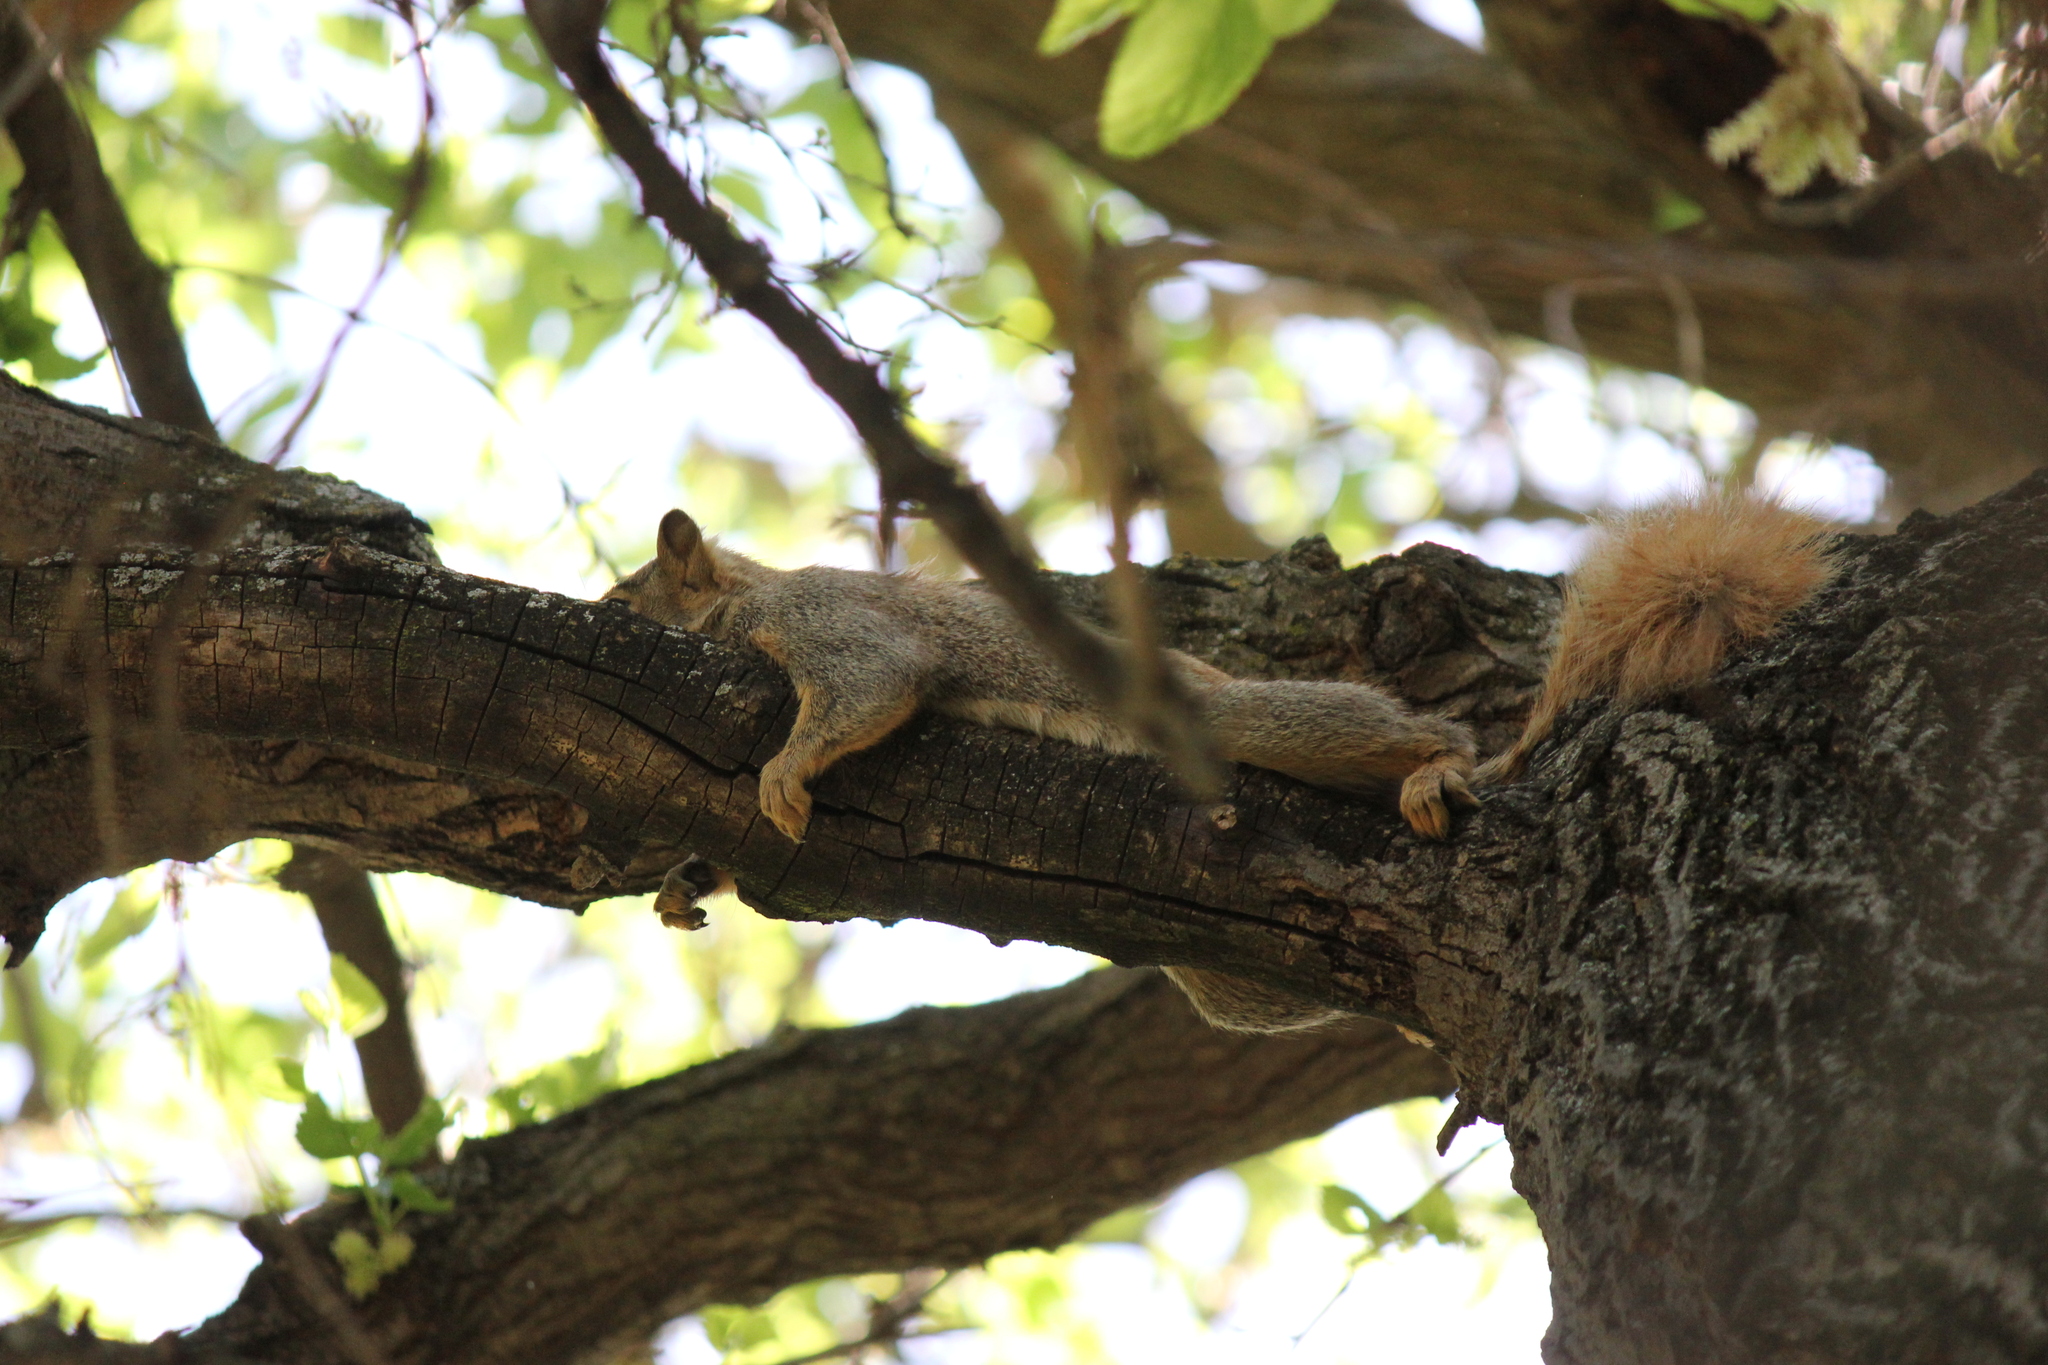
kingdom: Animalia
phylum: Chordata
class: Mammalia
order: Rodentia
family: Sciuridae
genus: Sciurus
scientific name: Sciurus niger
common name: Fox squirrel
